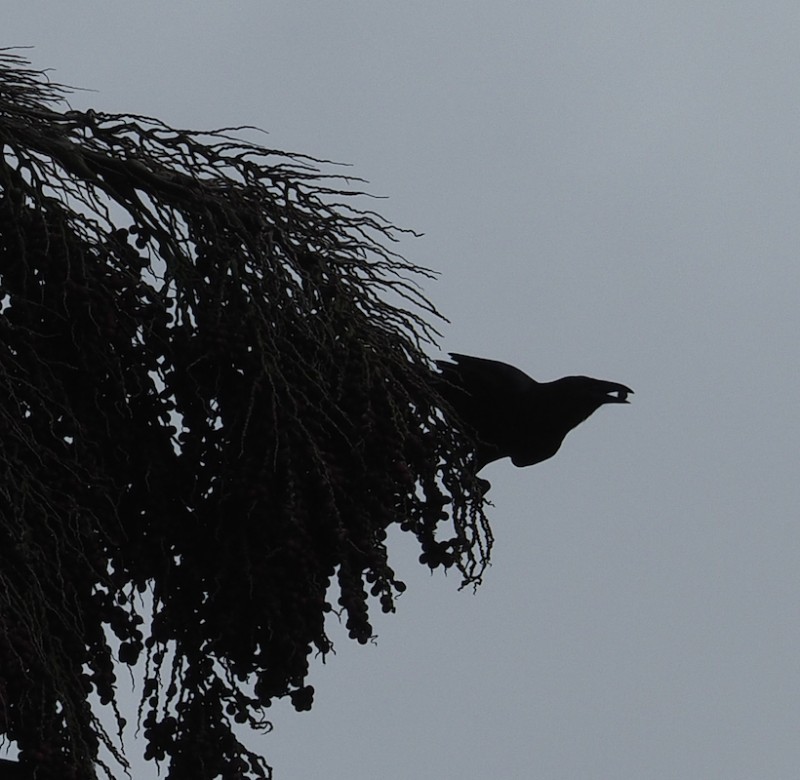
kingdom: Animalia
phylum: Chordata
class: Aves
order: Passeriformes
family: Corvidae
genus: Corvus
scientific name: Corvus nasicus
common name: Cuban crow
